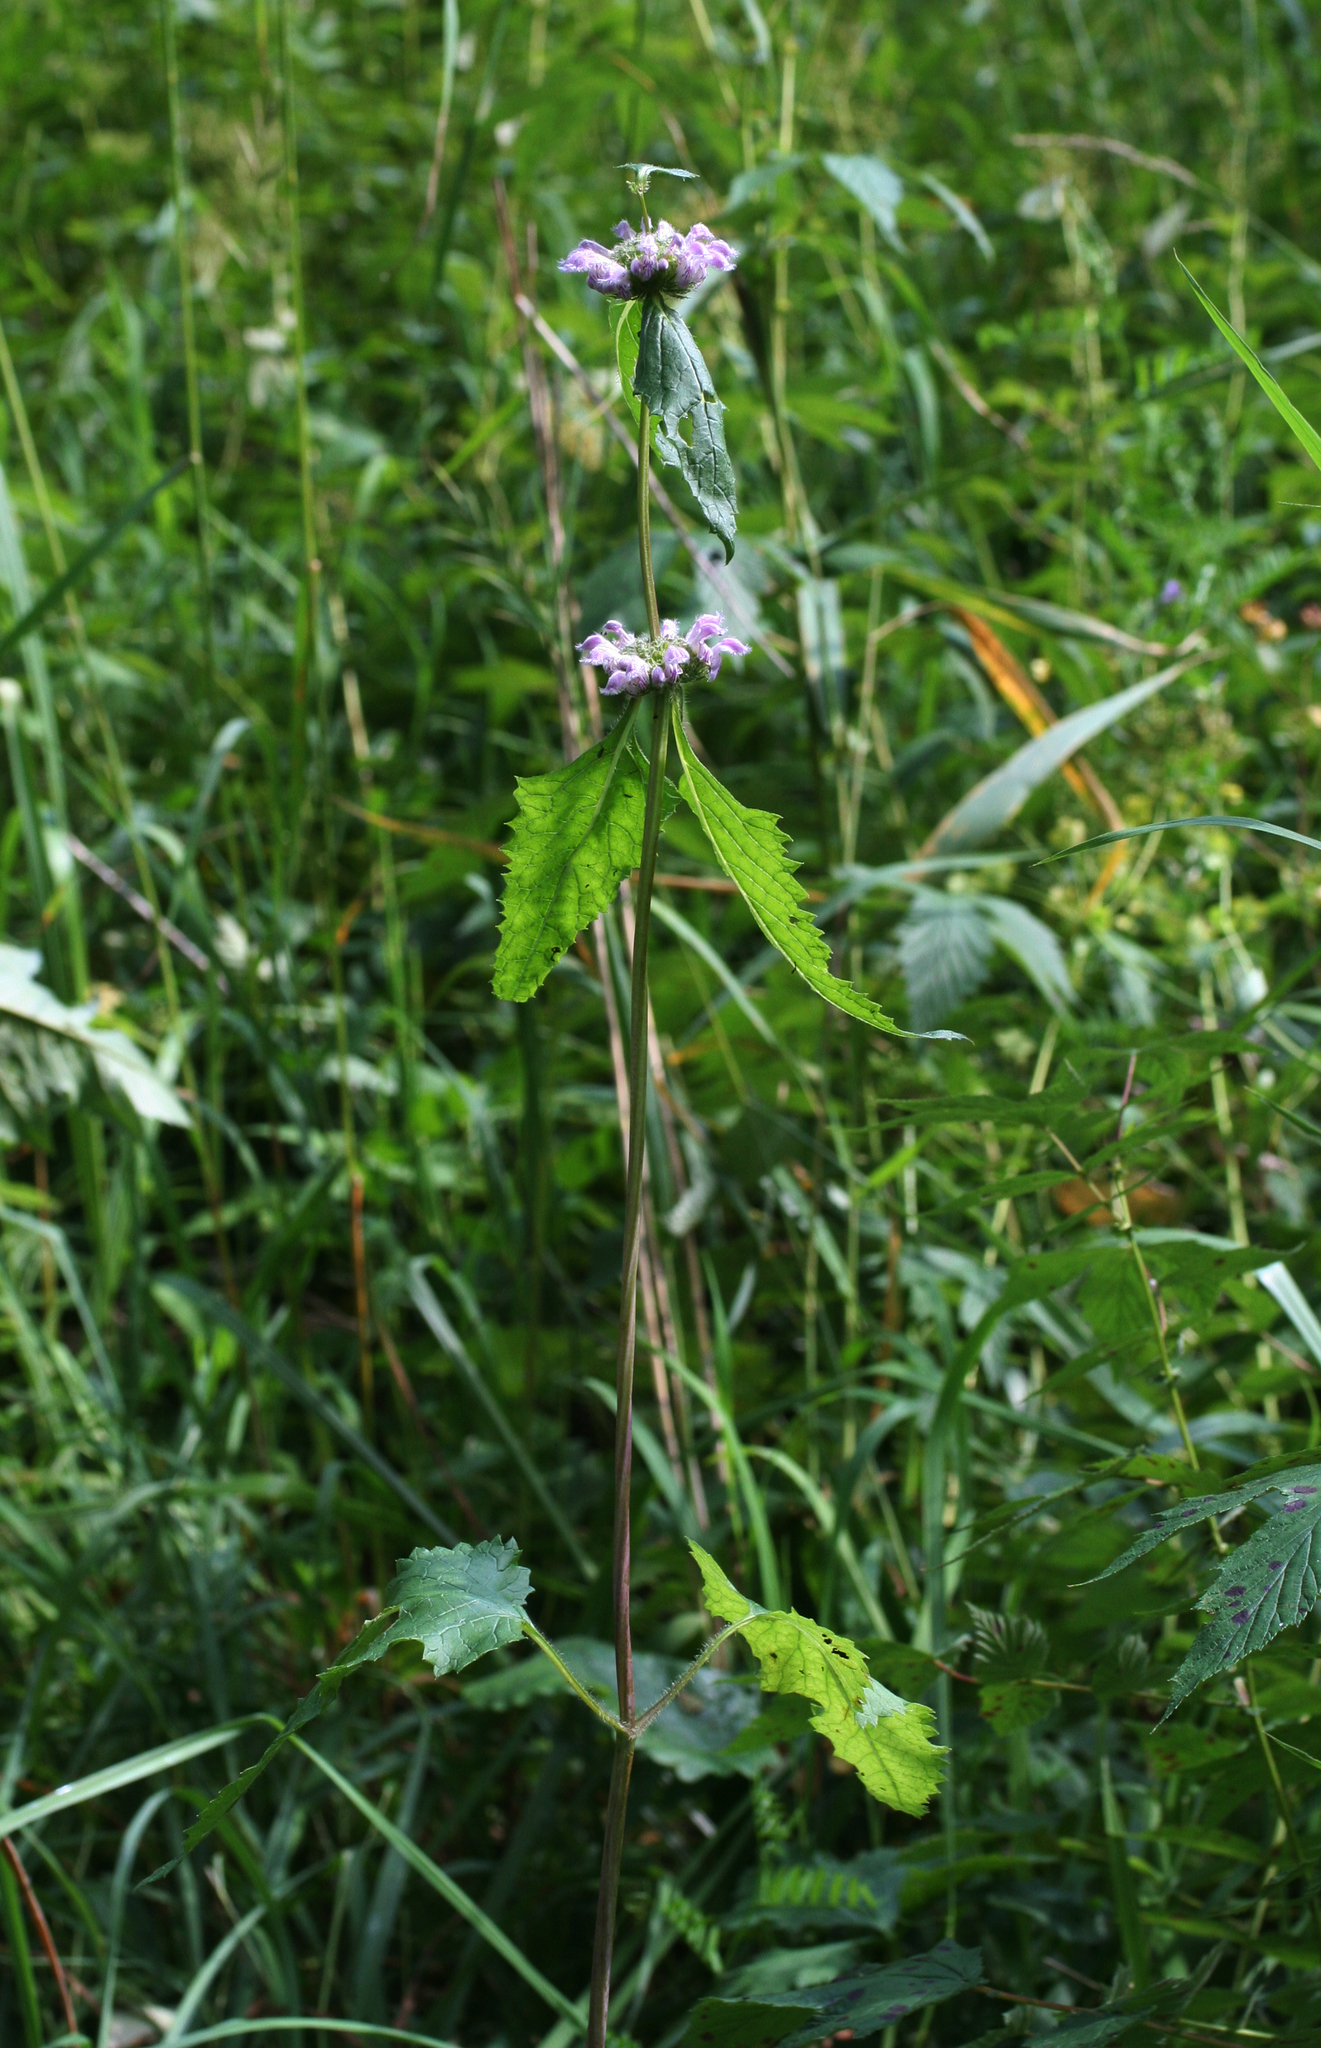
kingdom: Plantae
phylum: Tracheophyta
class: Magnoliopsida
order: Lamiales
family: Lamiaceae
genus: Phlomoides
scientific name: Phlomoides tuberosa
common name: Tuberous jerusalem sage
